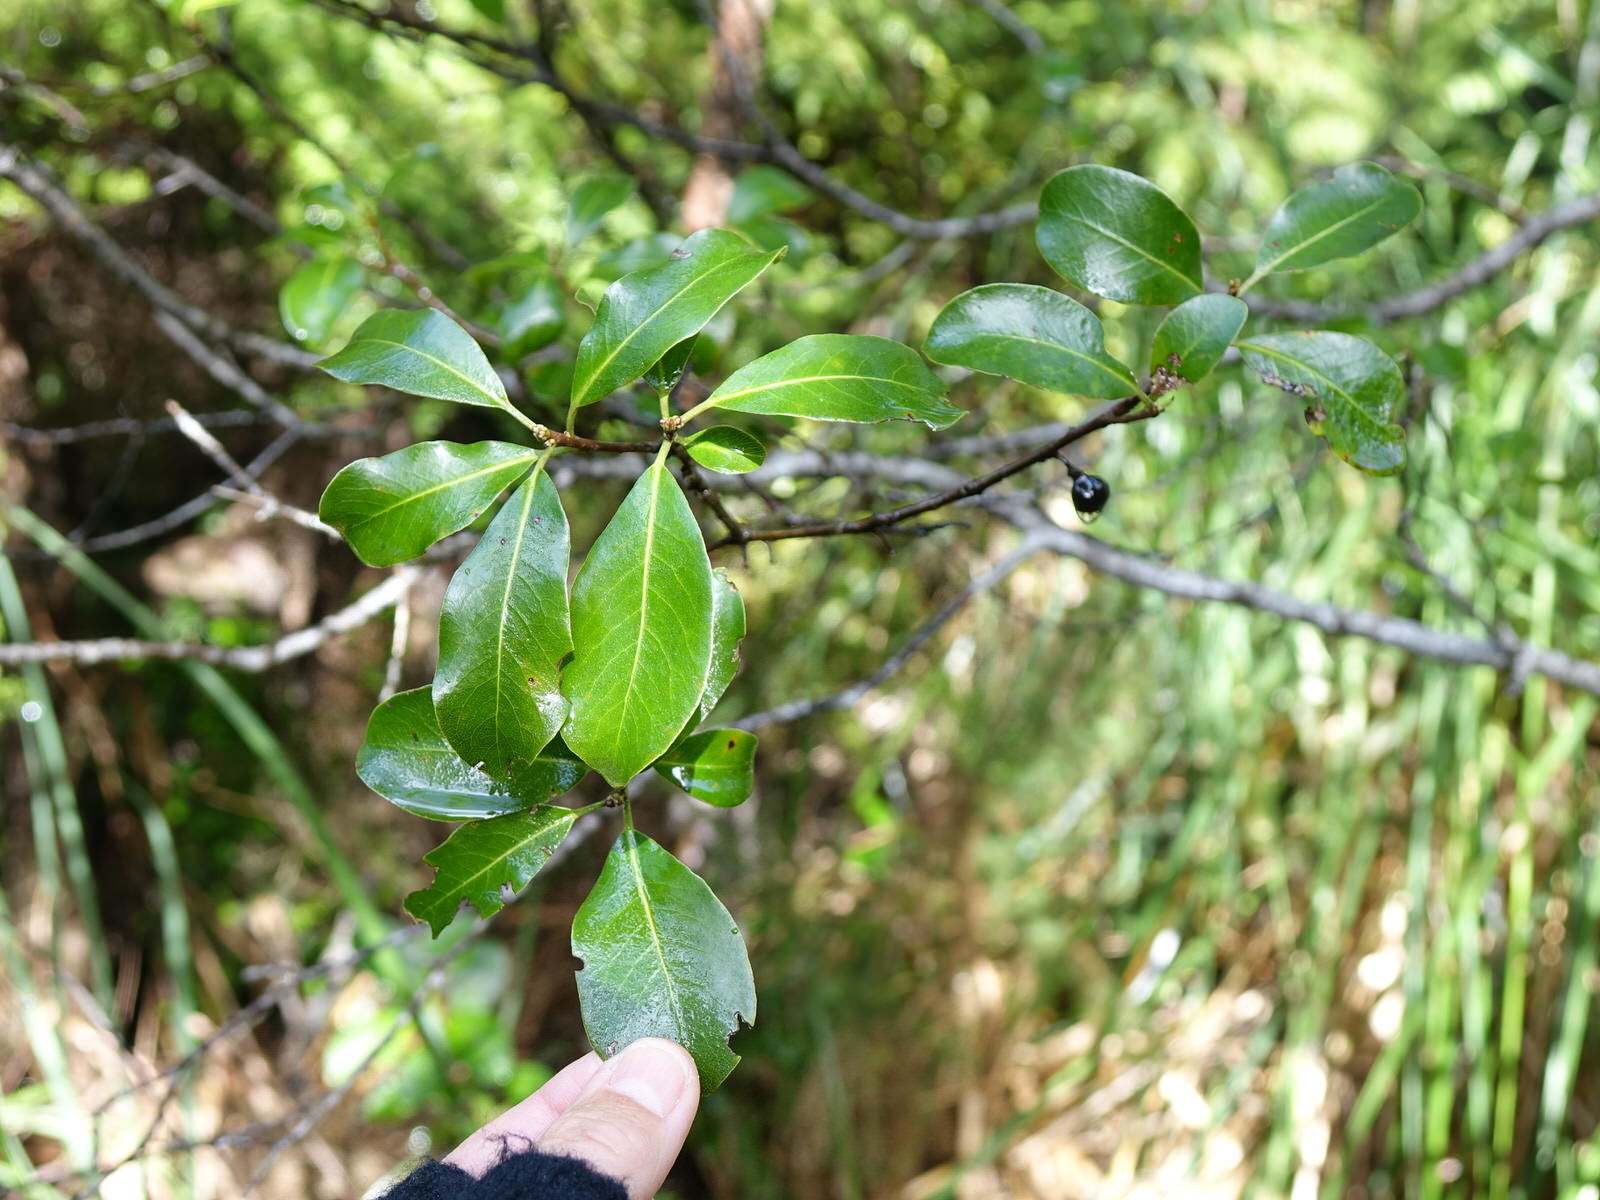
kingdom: Plantae
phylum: Tracheophyta
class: Magnoliopsida
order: Apiales
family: Pittosporaceae
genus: Pittosporum
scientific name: Pittosporum tenuifolium
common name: Kohuhu
